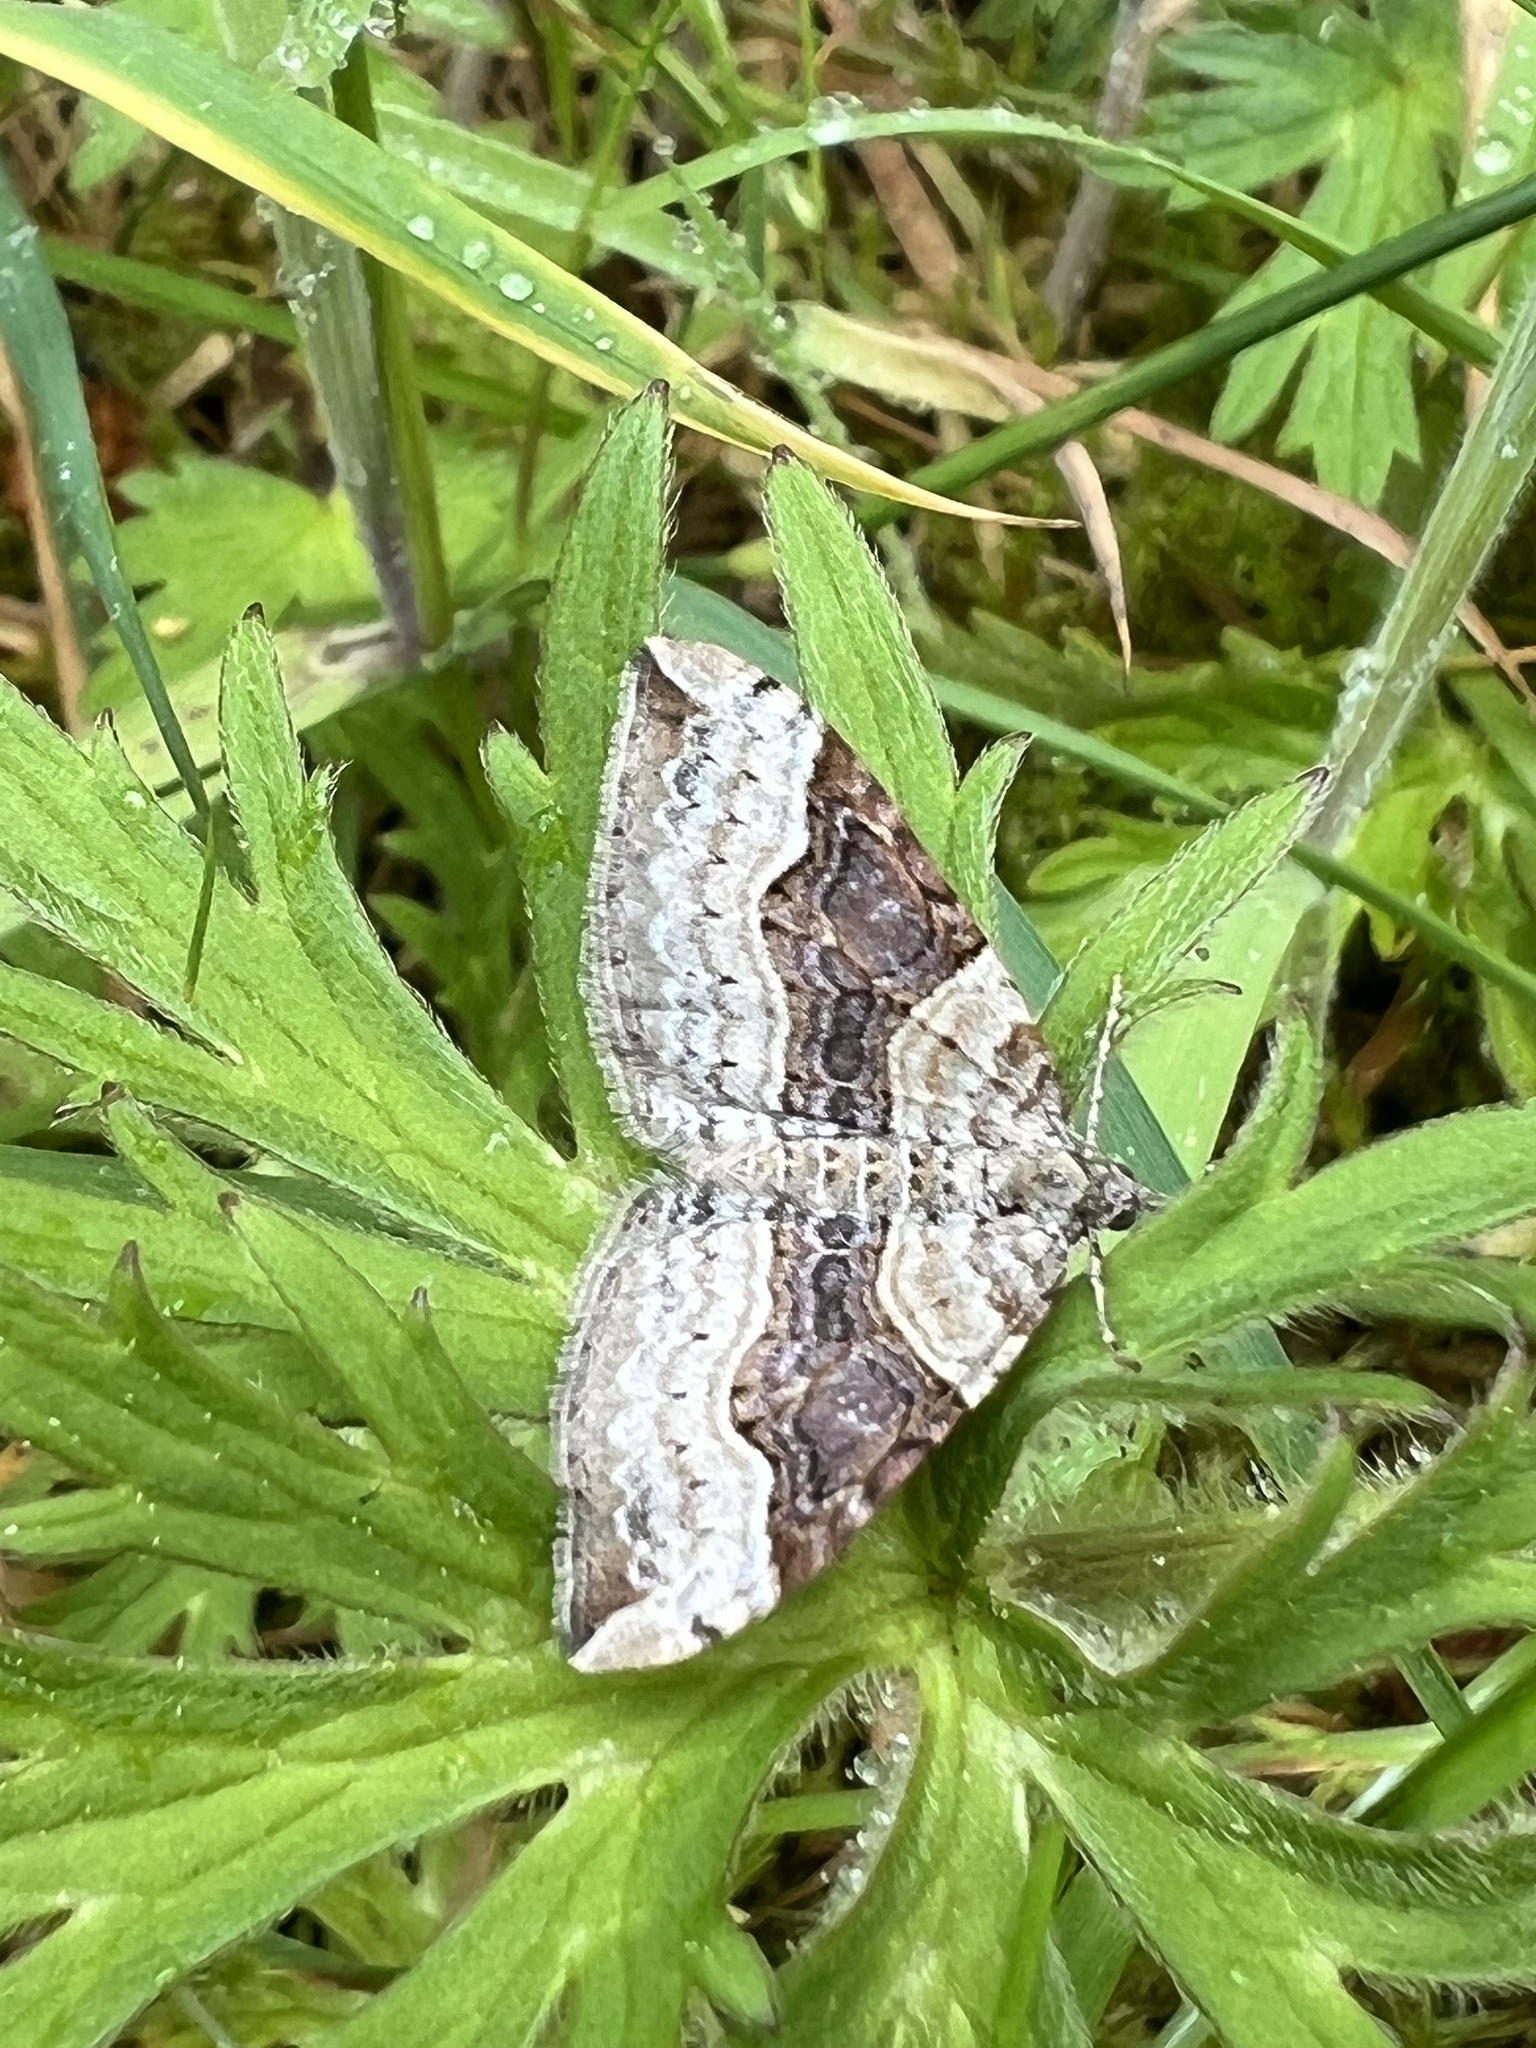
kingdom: Animalia
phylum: Arthropoda
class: Insecta
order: Lepidoptera
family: Geometridae
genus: Xanthorhoe
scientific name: Xanthorhoe defensaria
